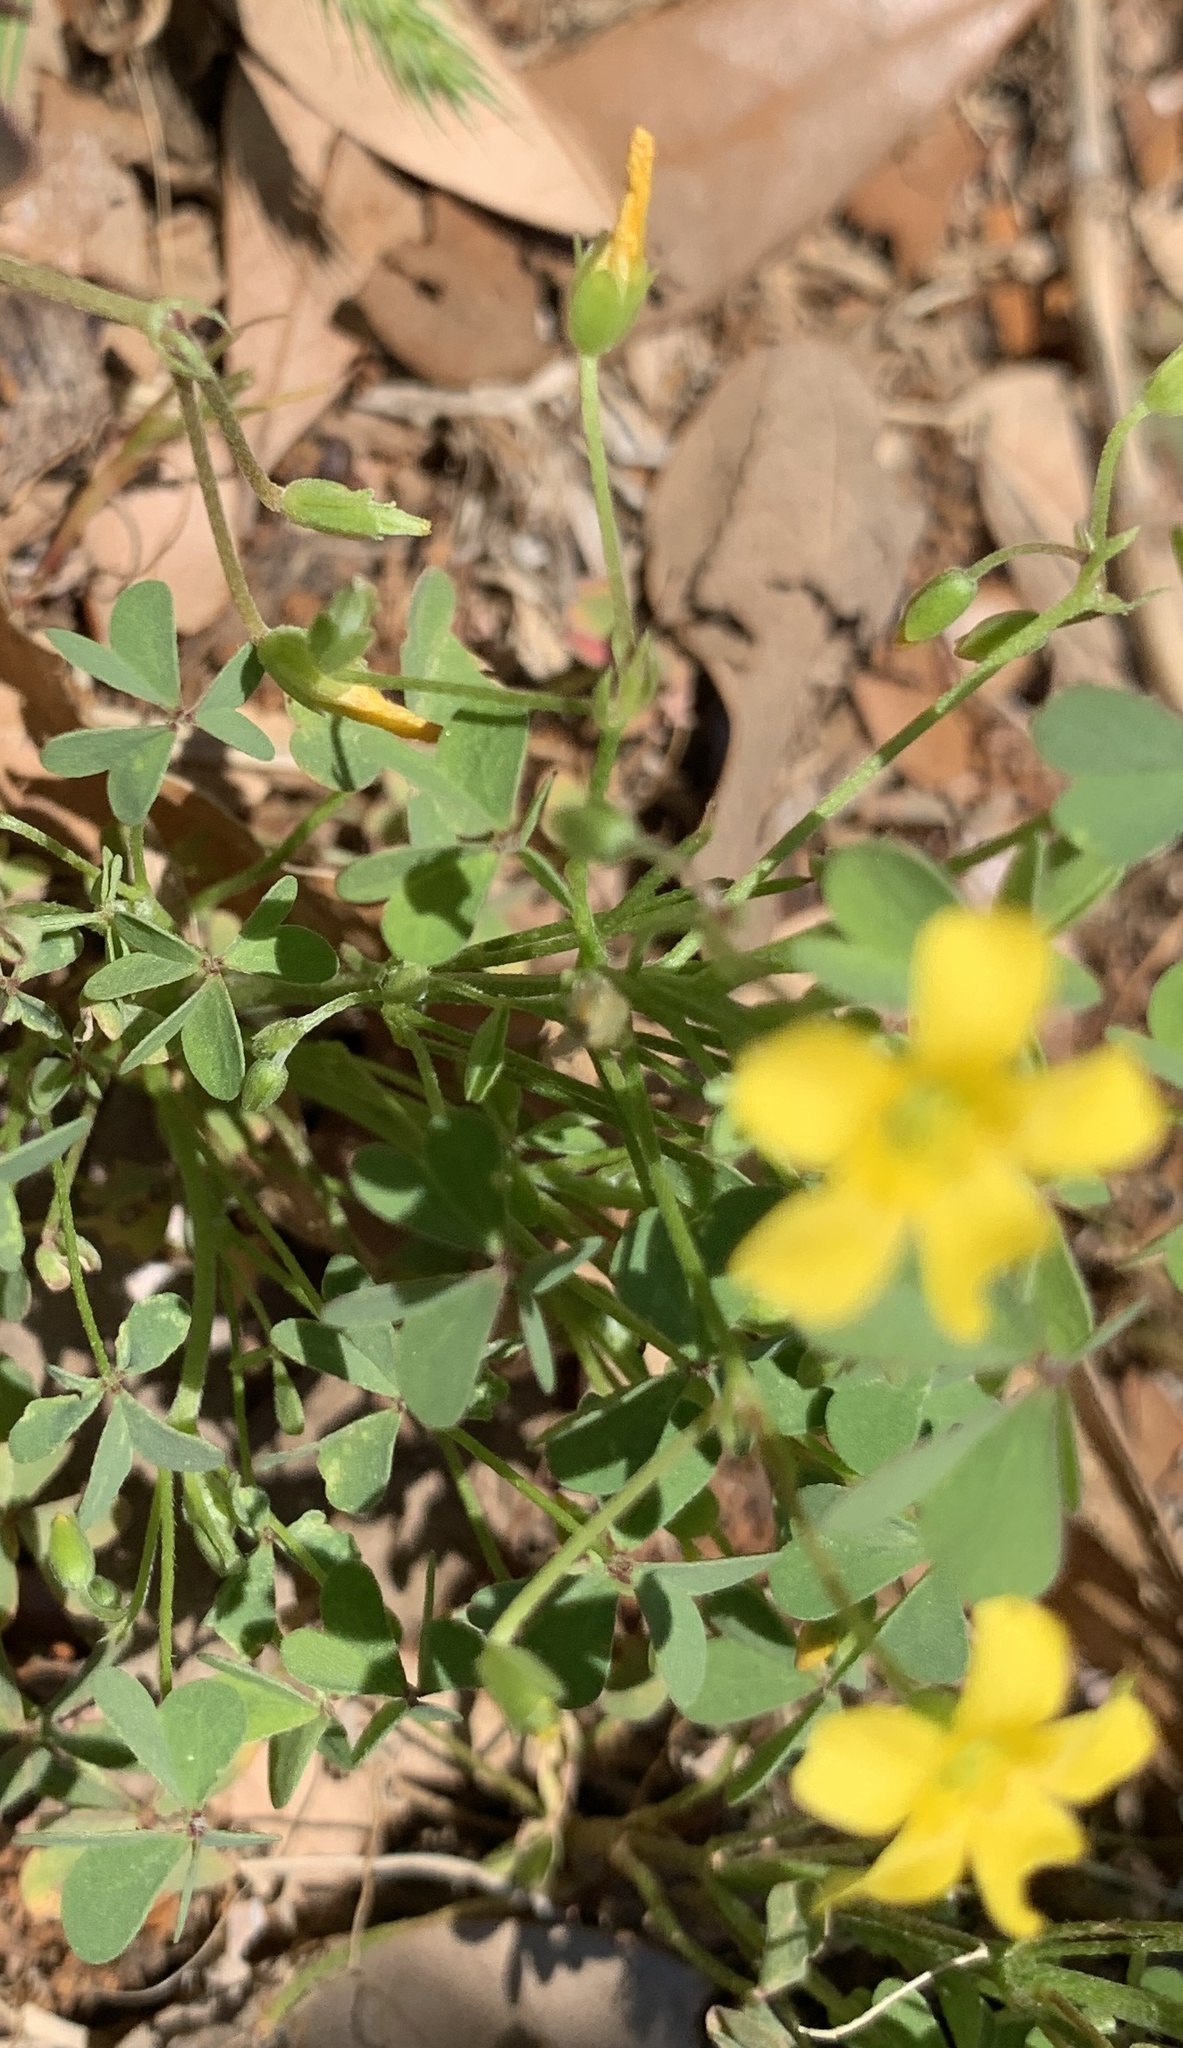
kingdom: Plantae
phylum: Tracheophyta
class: Magnoliopsida
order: Oxalidales
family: Oxalidaceae
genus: Oxalis
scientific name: Oxalis dillenii
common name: Sussex yellow-sorrel
